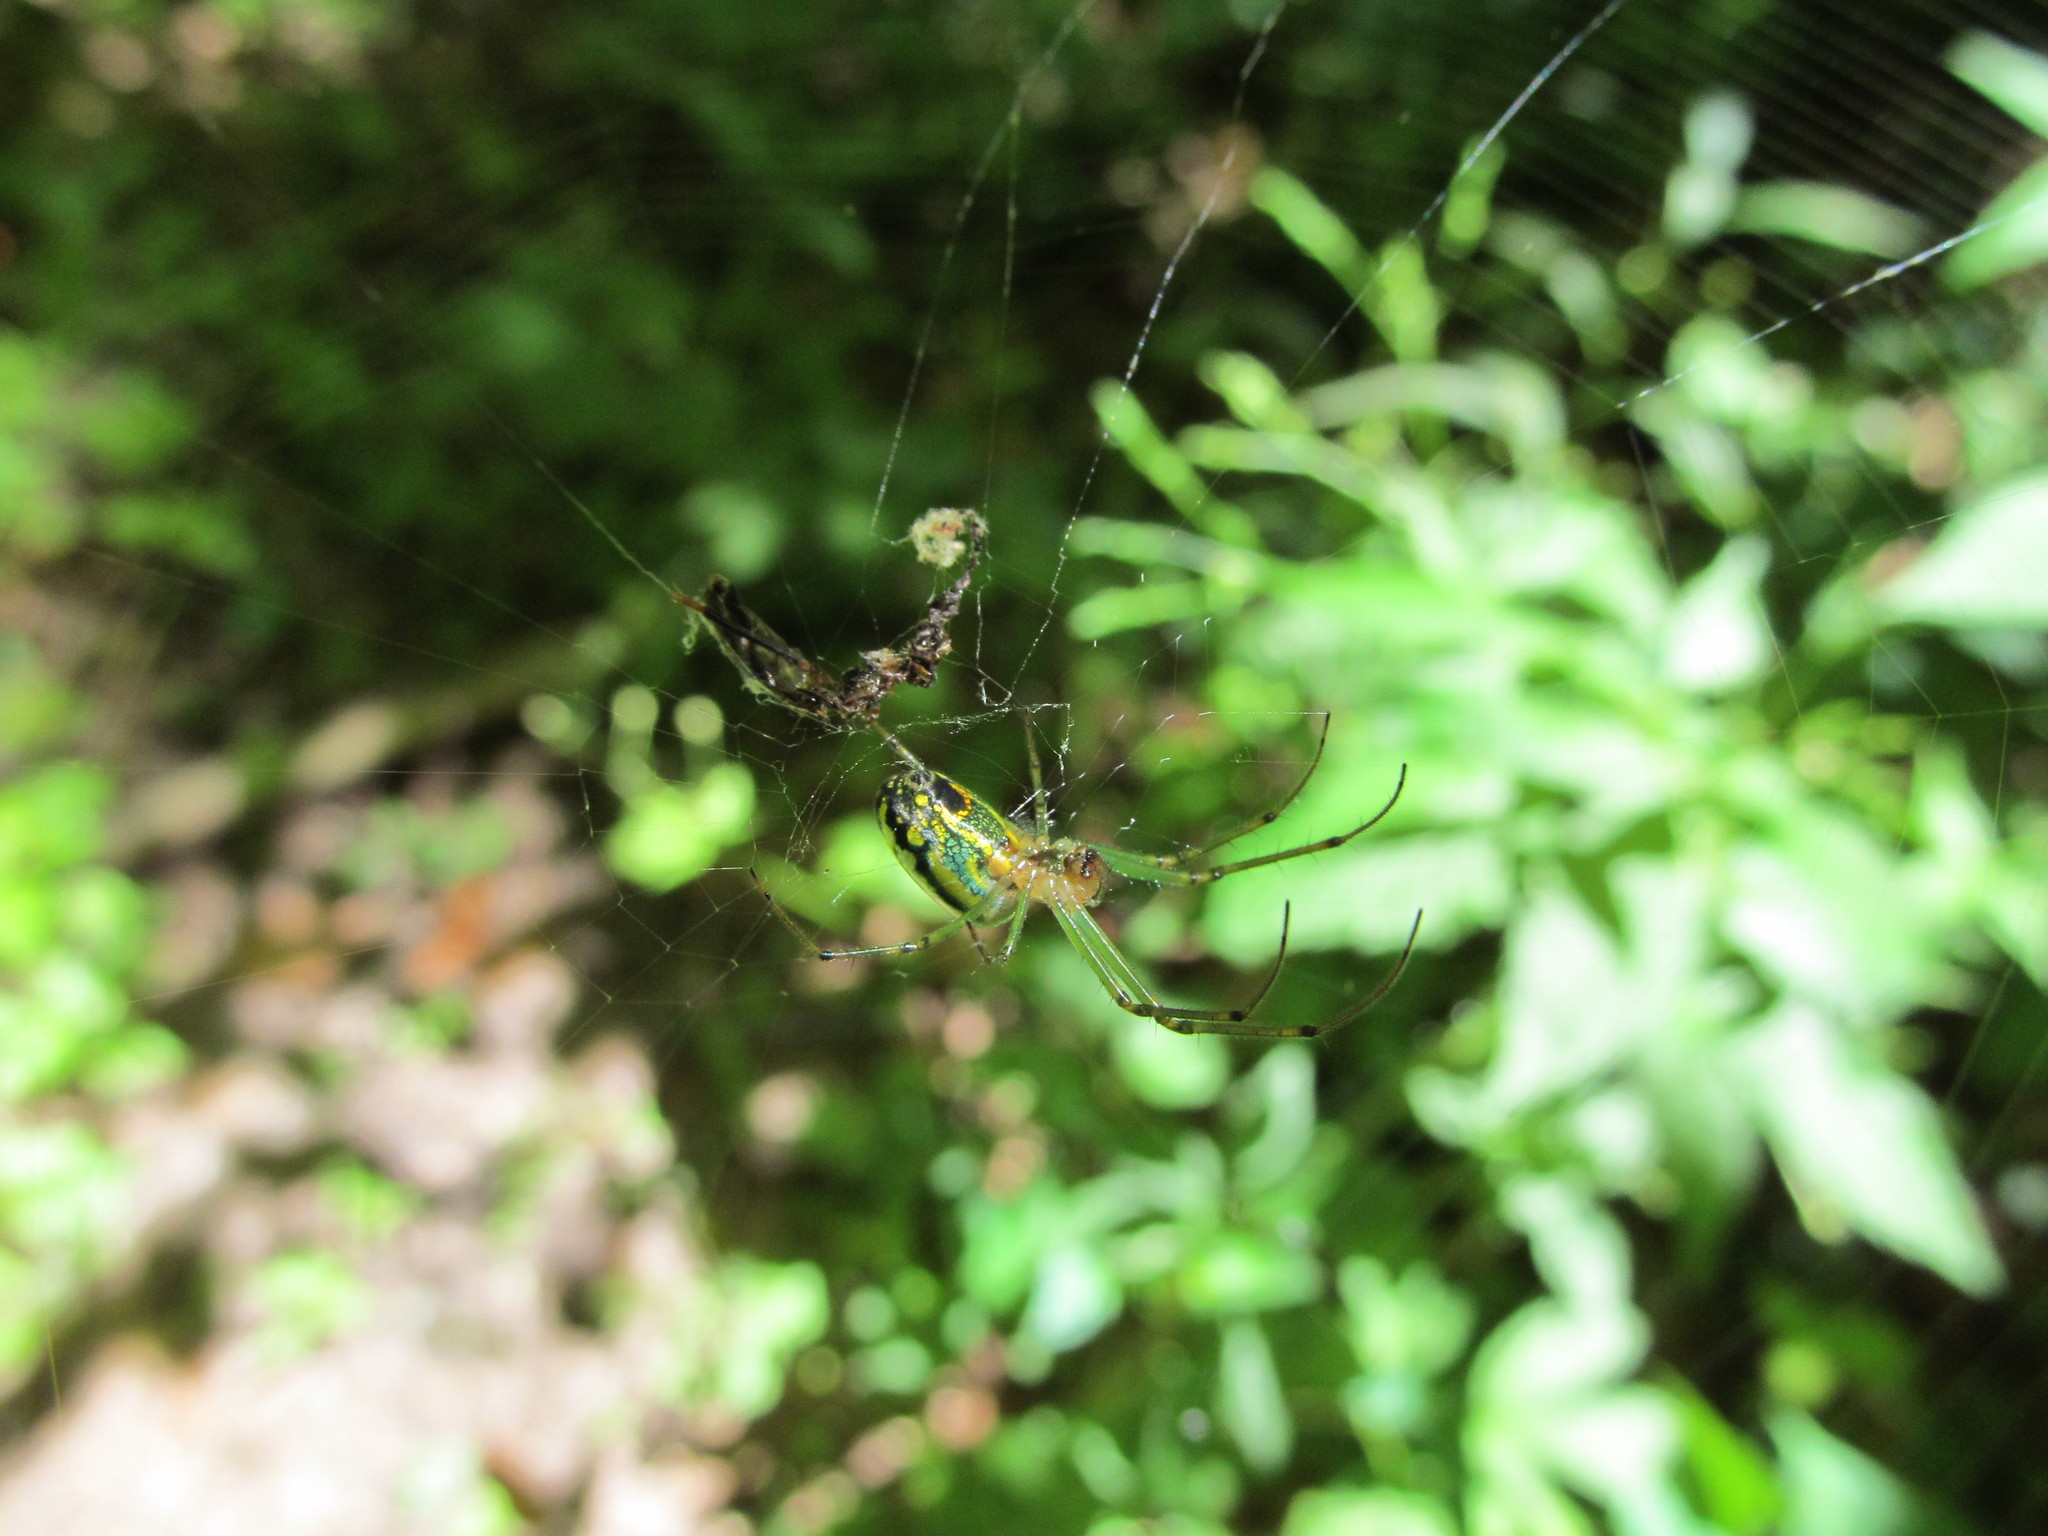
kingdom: Animalia
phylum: Arthropoda
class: Arachnida
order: Araneae
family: Tetragnathidae
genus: Leucauge
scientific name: Leucauge venusta
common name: Longjawed orb weavers
